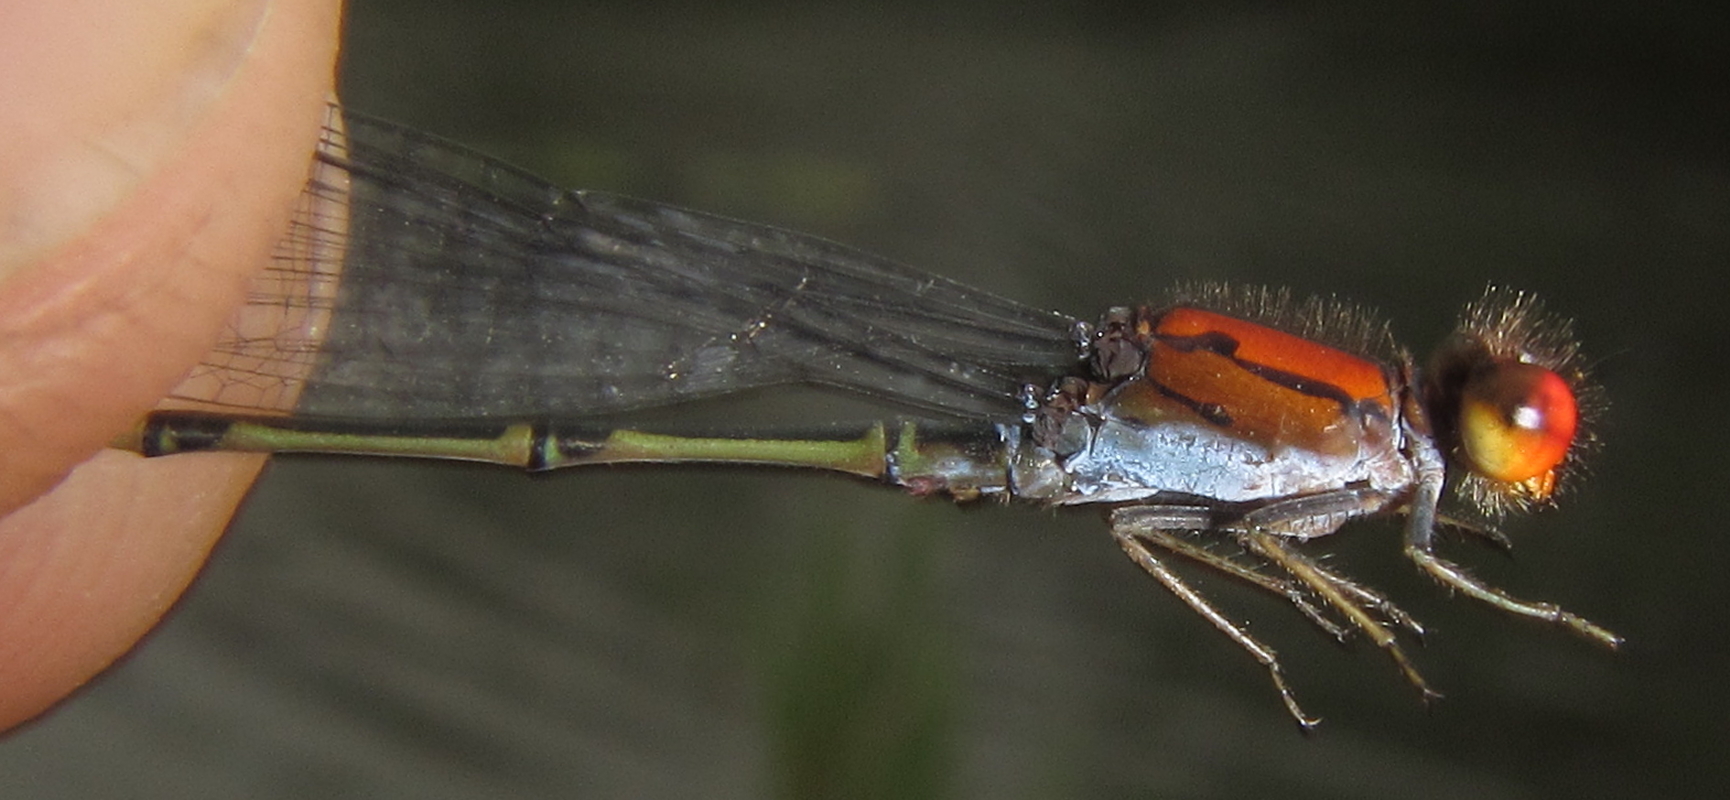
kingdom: Animalia
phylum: Arthropoda
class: Insecta
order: Odonata
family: Coenagrionidae
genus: Pseudagrion
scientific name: Pseudagrion massaicum
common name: Masai sprite
